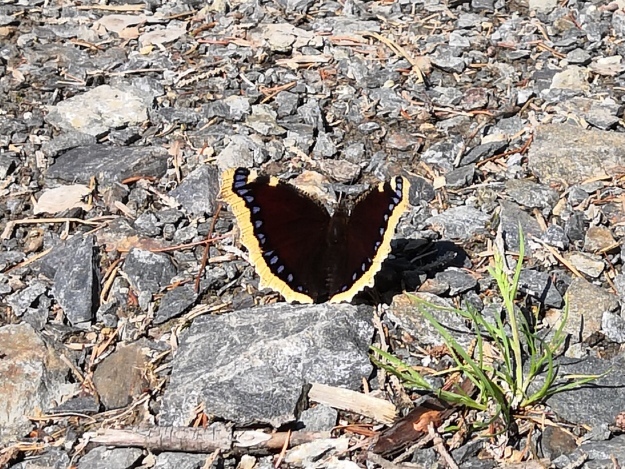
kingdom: Animalia
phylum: Arthropoda
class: Insecta
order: Lepidoptera
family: Nymphalidae
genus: Nymphalis
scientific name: Nymphalis antiopa
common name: Camberwell beauty
